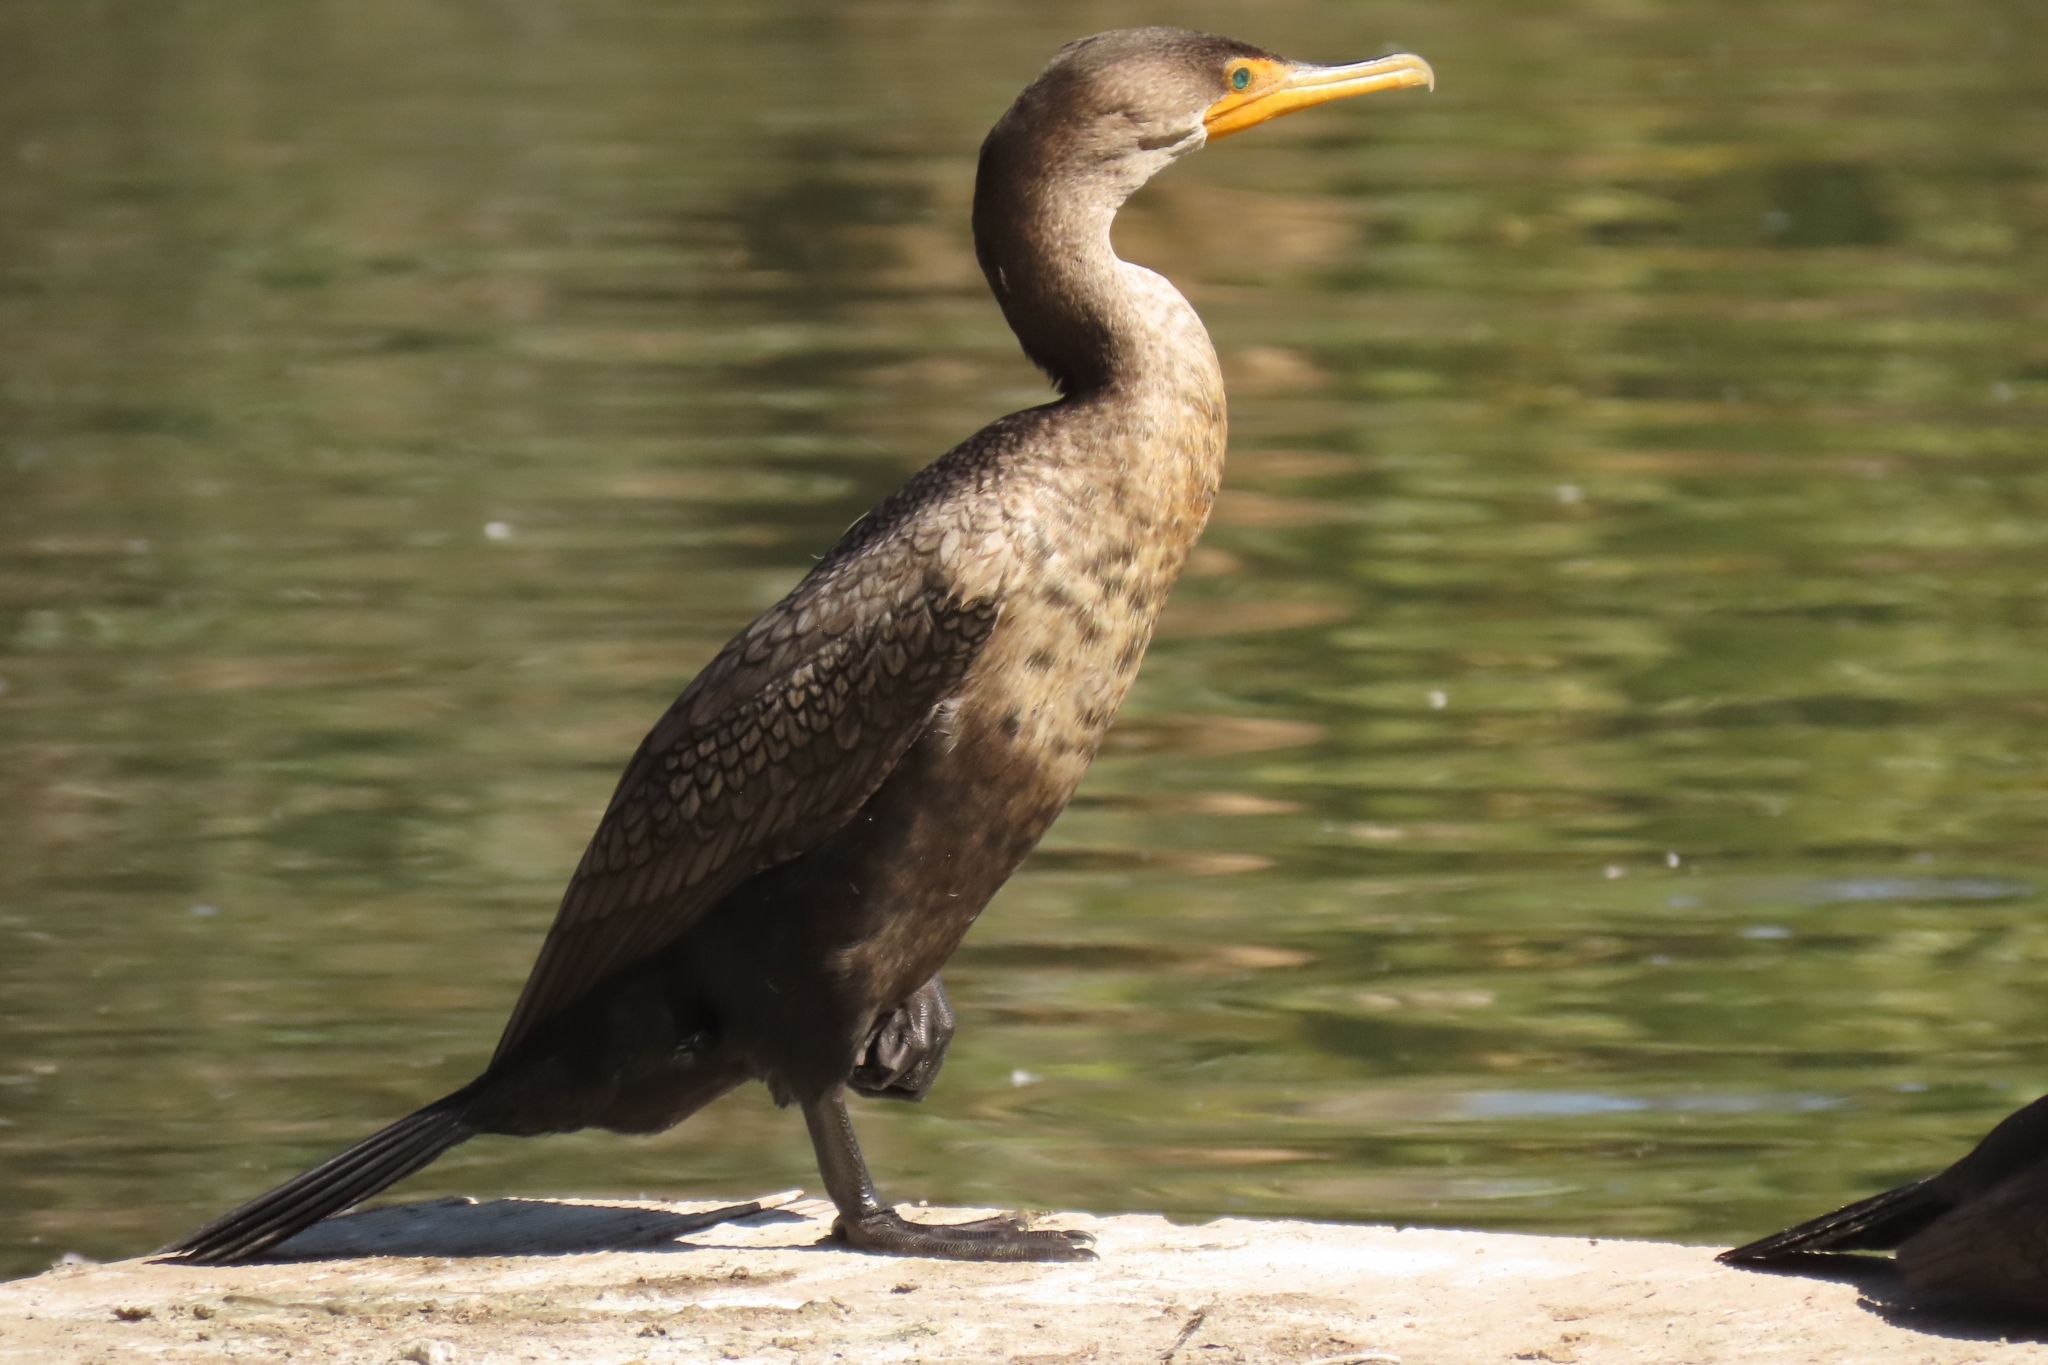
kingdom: Animalia
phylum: Chordata
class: Aves
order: Suliformes
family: Phalacrocoracidae
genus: Phalacrocorax
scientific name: Phalacrocorax auritus
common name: Double-crested cormorant
